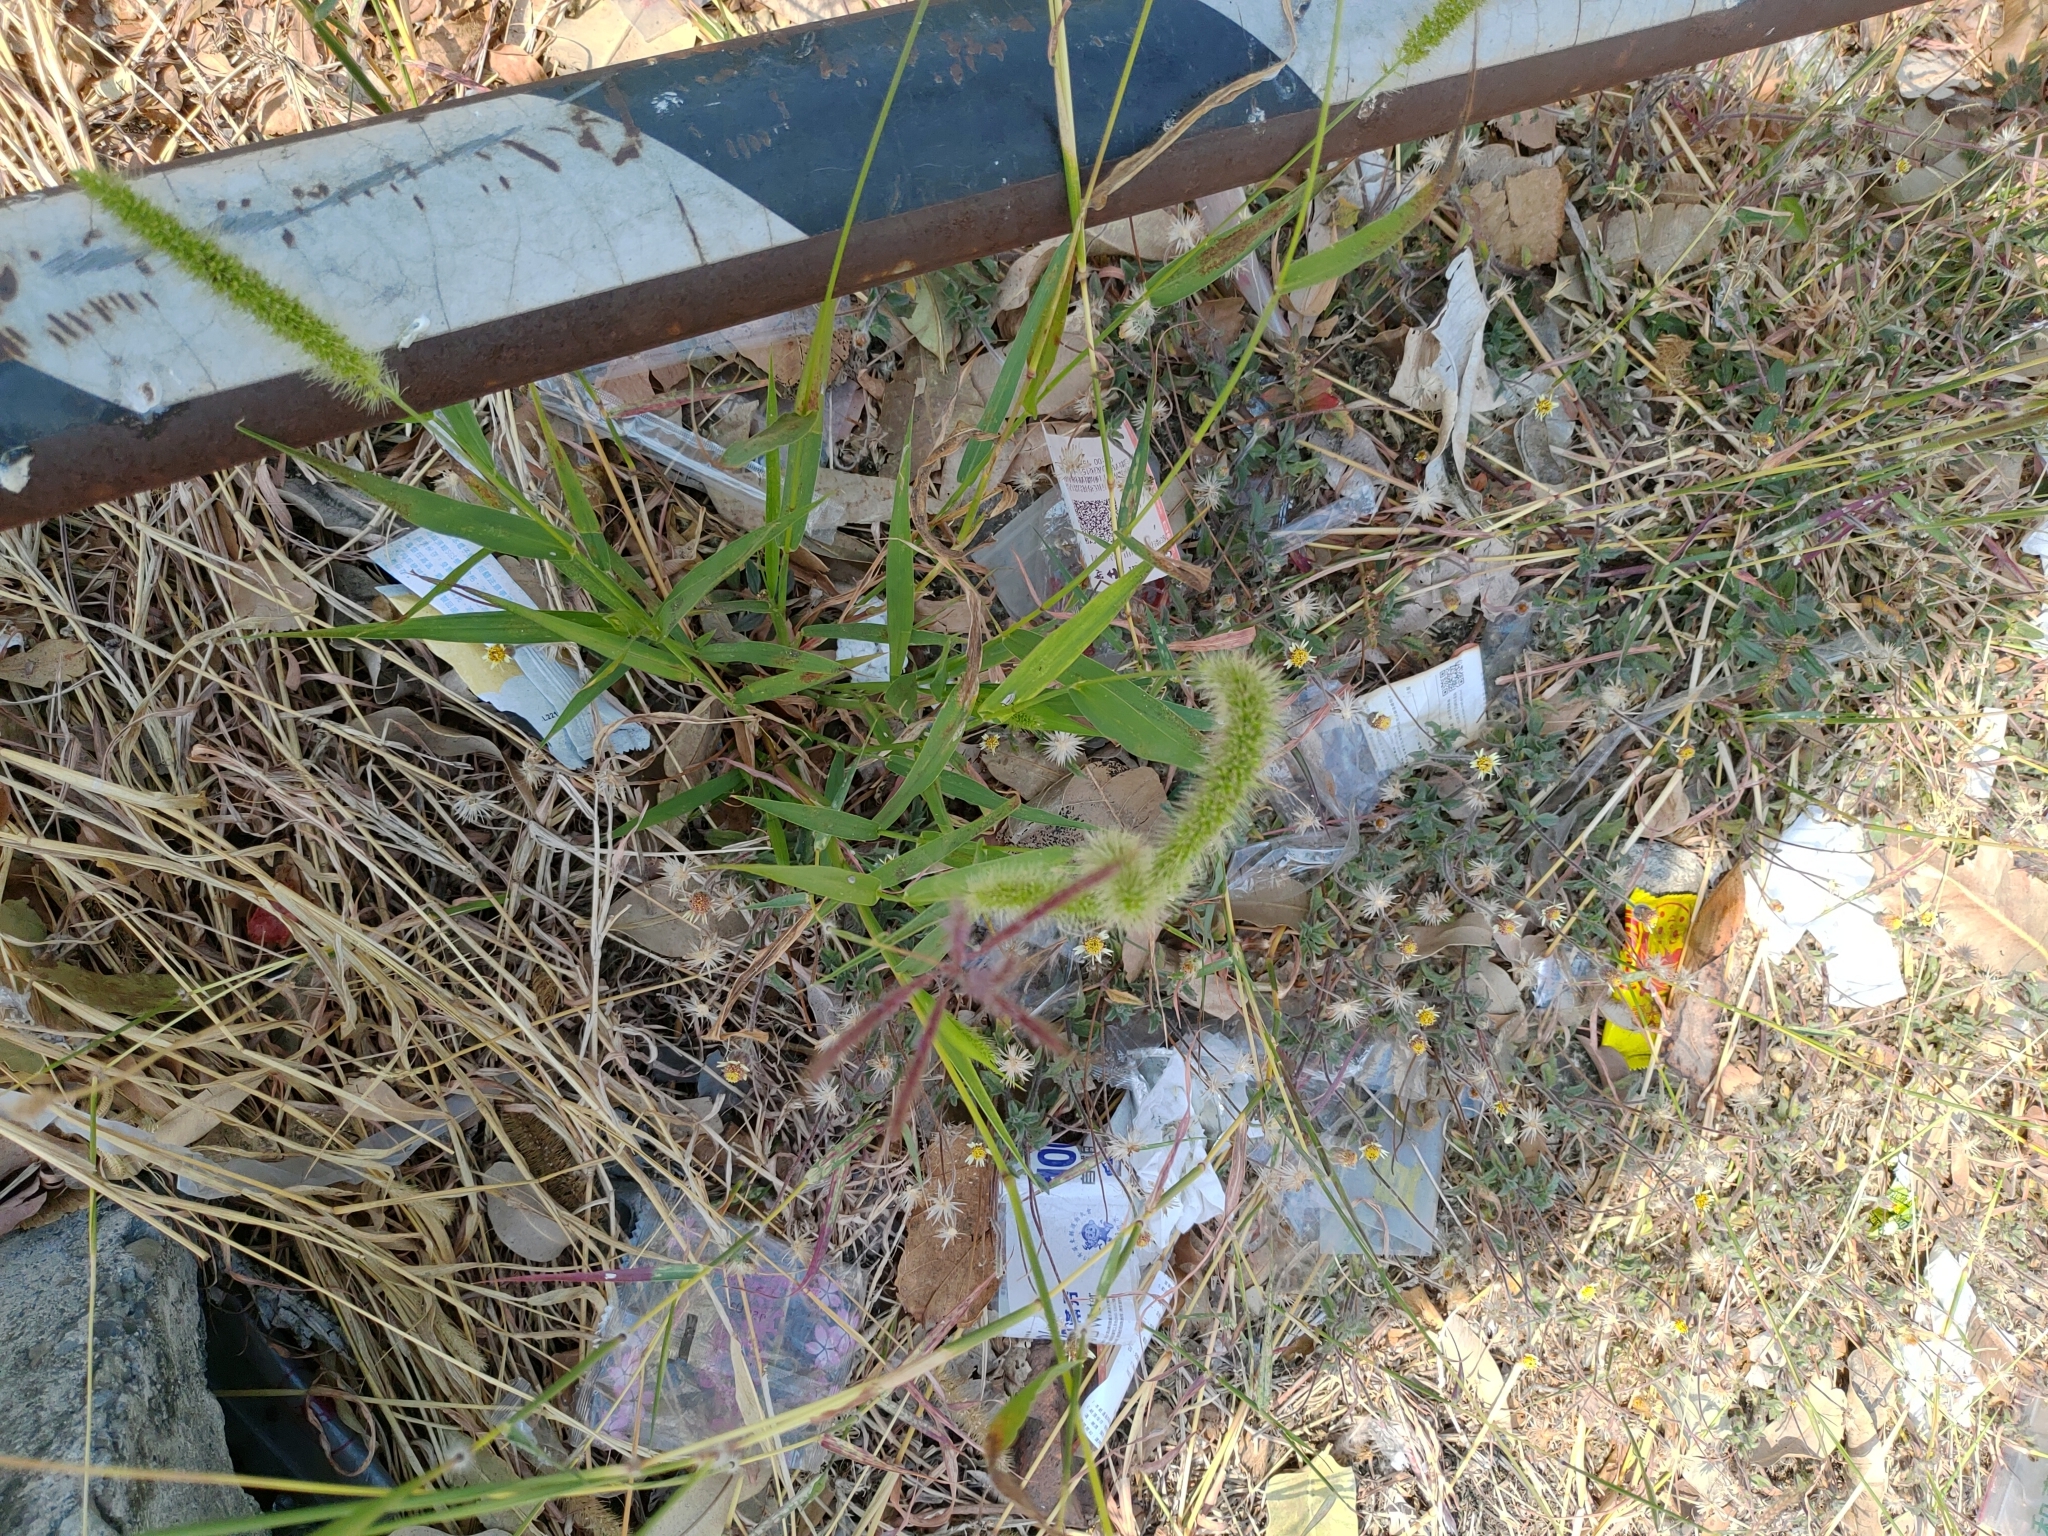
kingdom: Plantae
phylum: Tracheophyta
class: Liliopsida
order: Poales
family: Poaceae
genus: Setaria
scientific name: Setaria verticillata
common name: Hooked bristlegrass
